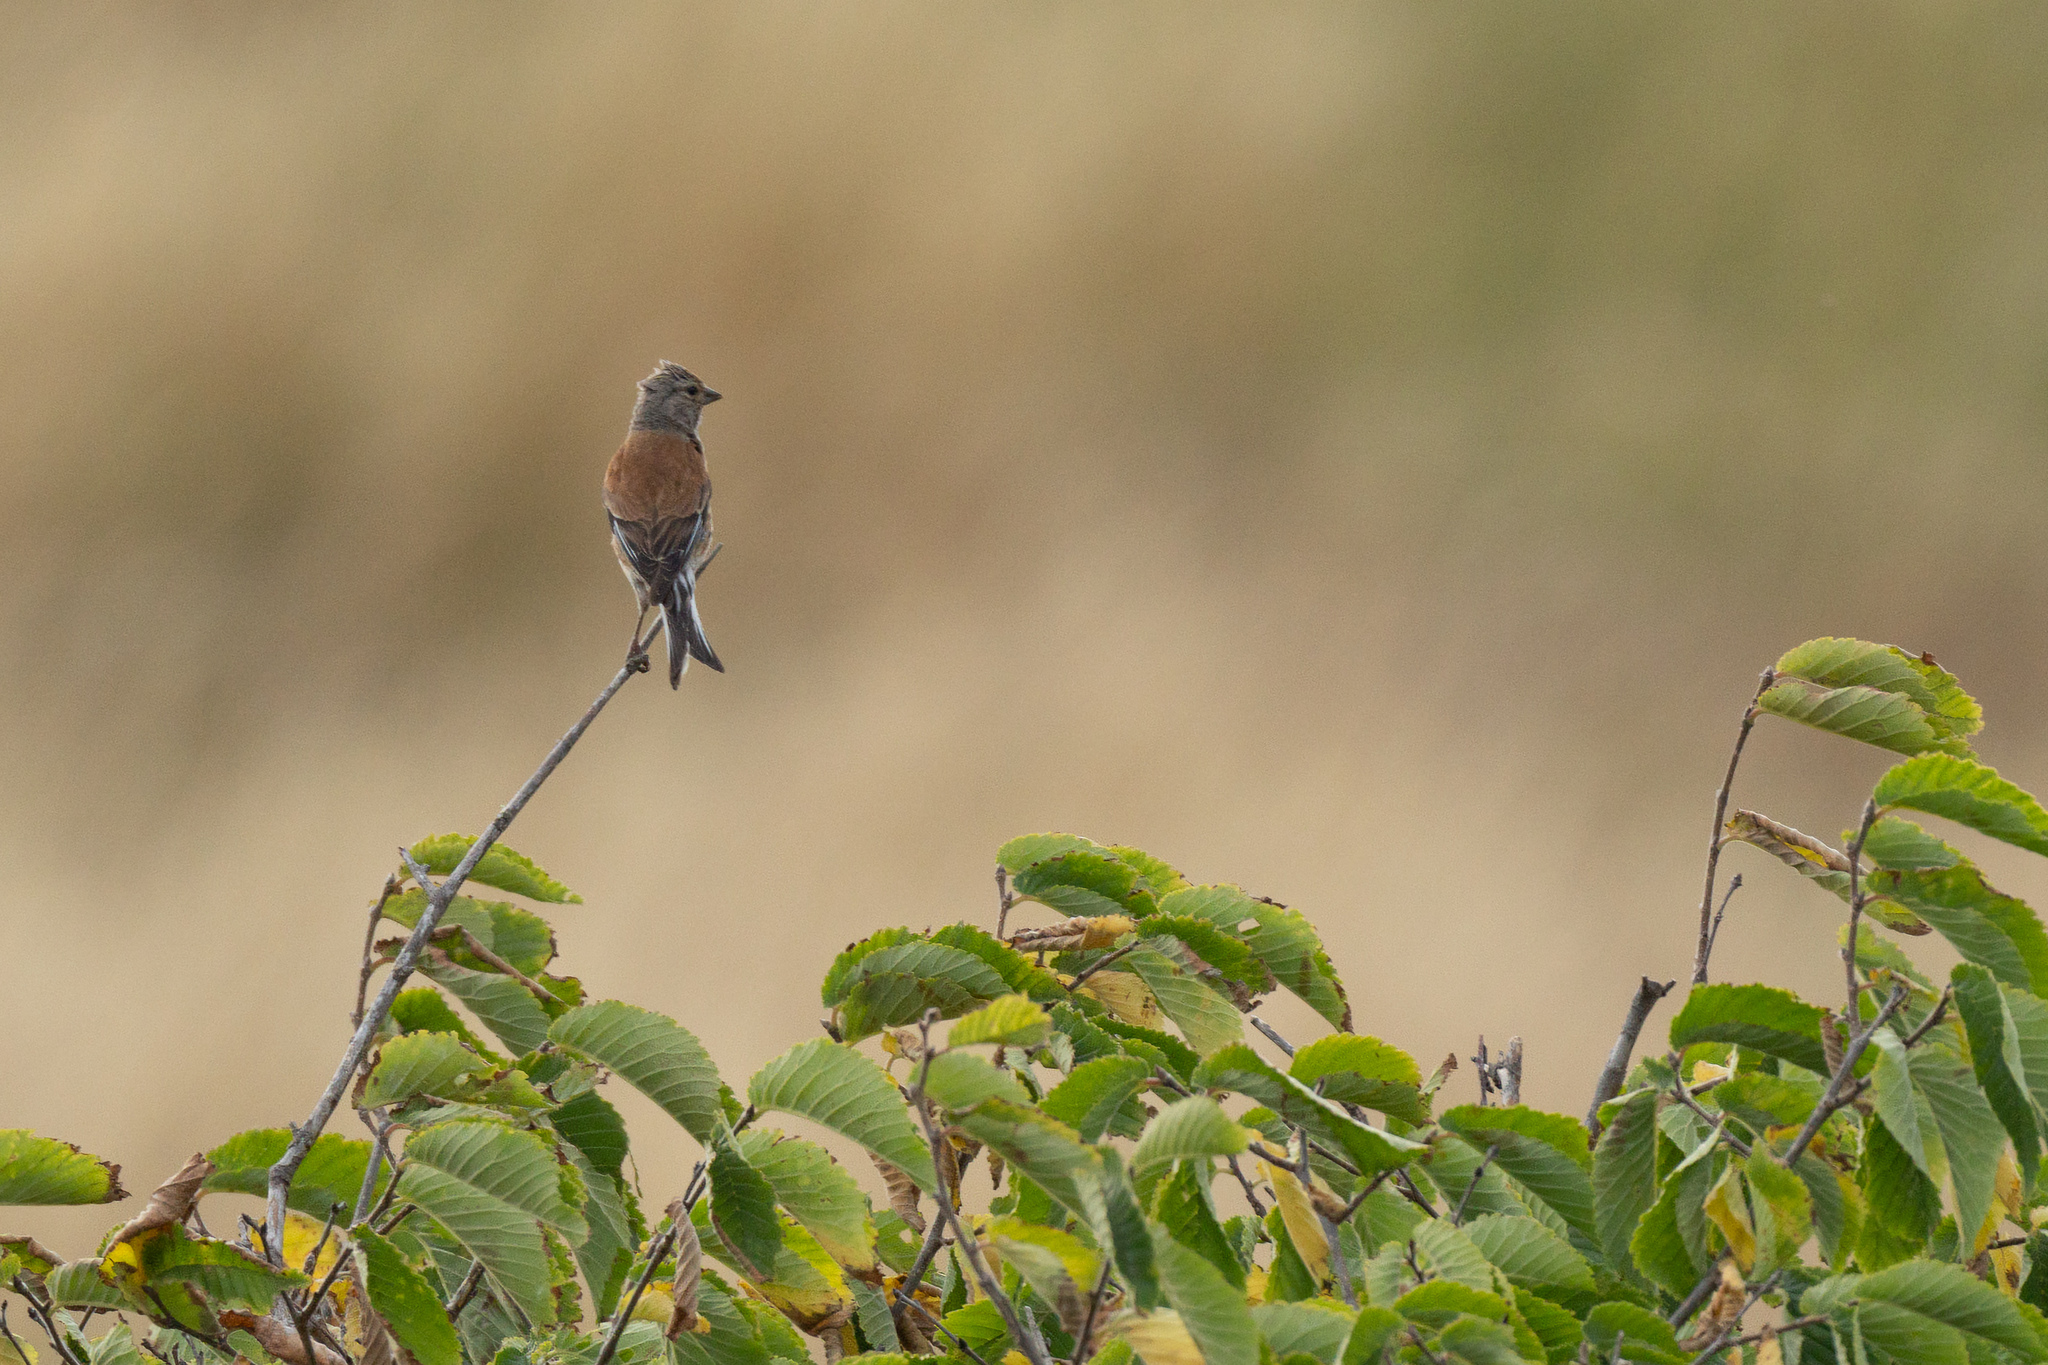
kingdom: Animalia
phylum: Chordata
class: Aves
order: Passeriformes
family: Fringillidae
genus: Linaria
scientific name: Linaria cannabina
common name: Common linnet
